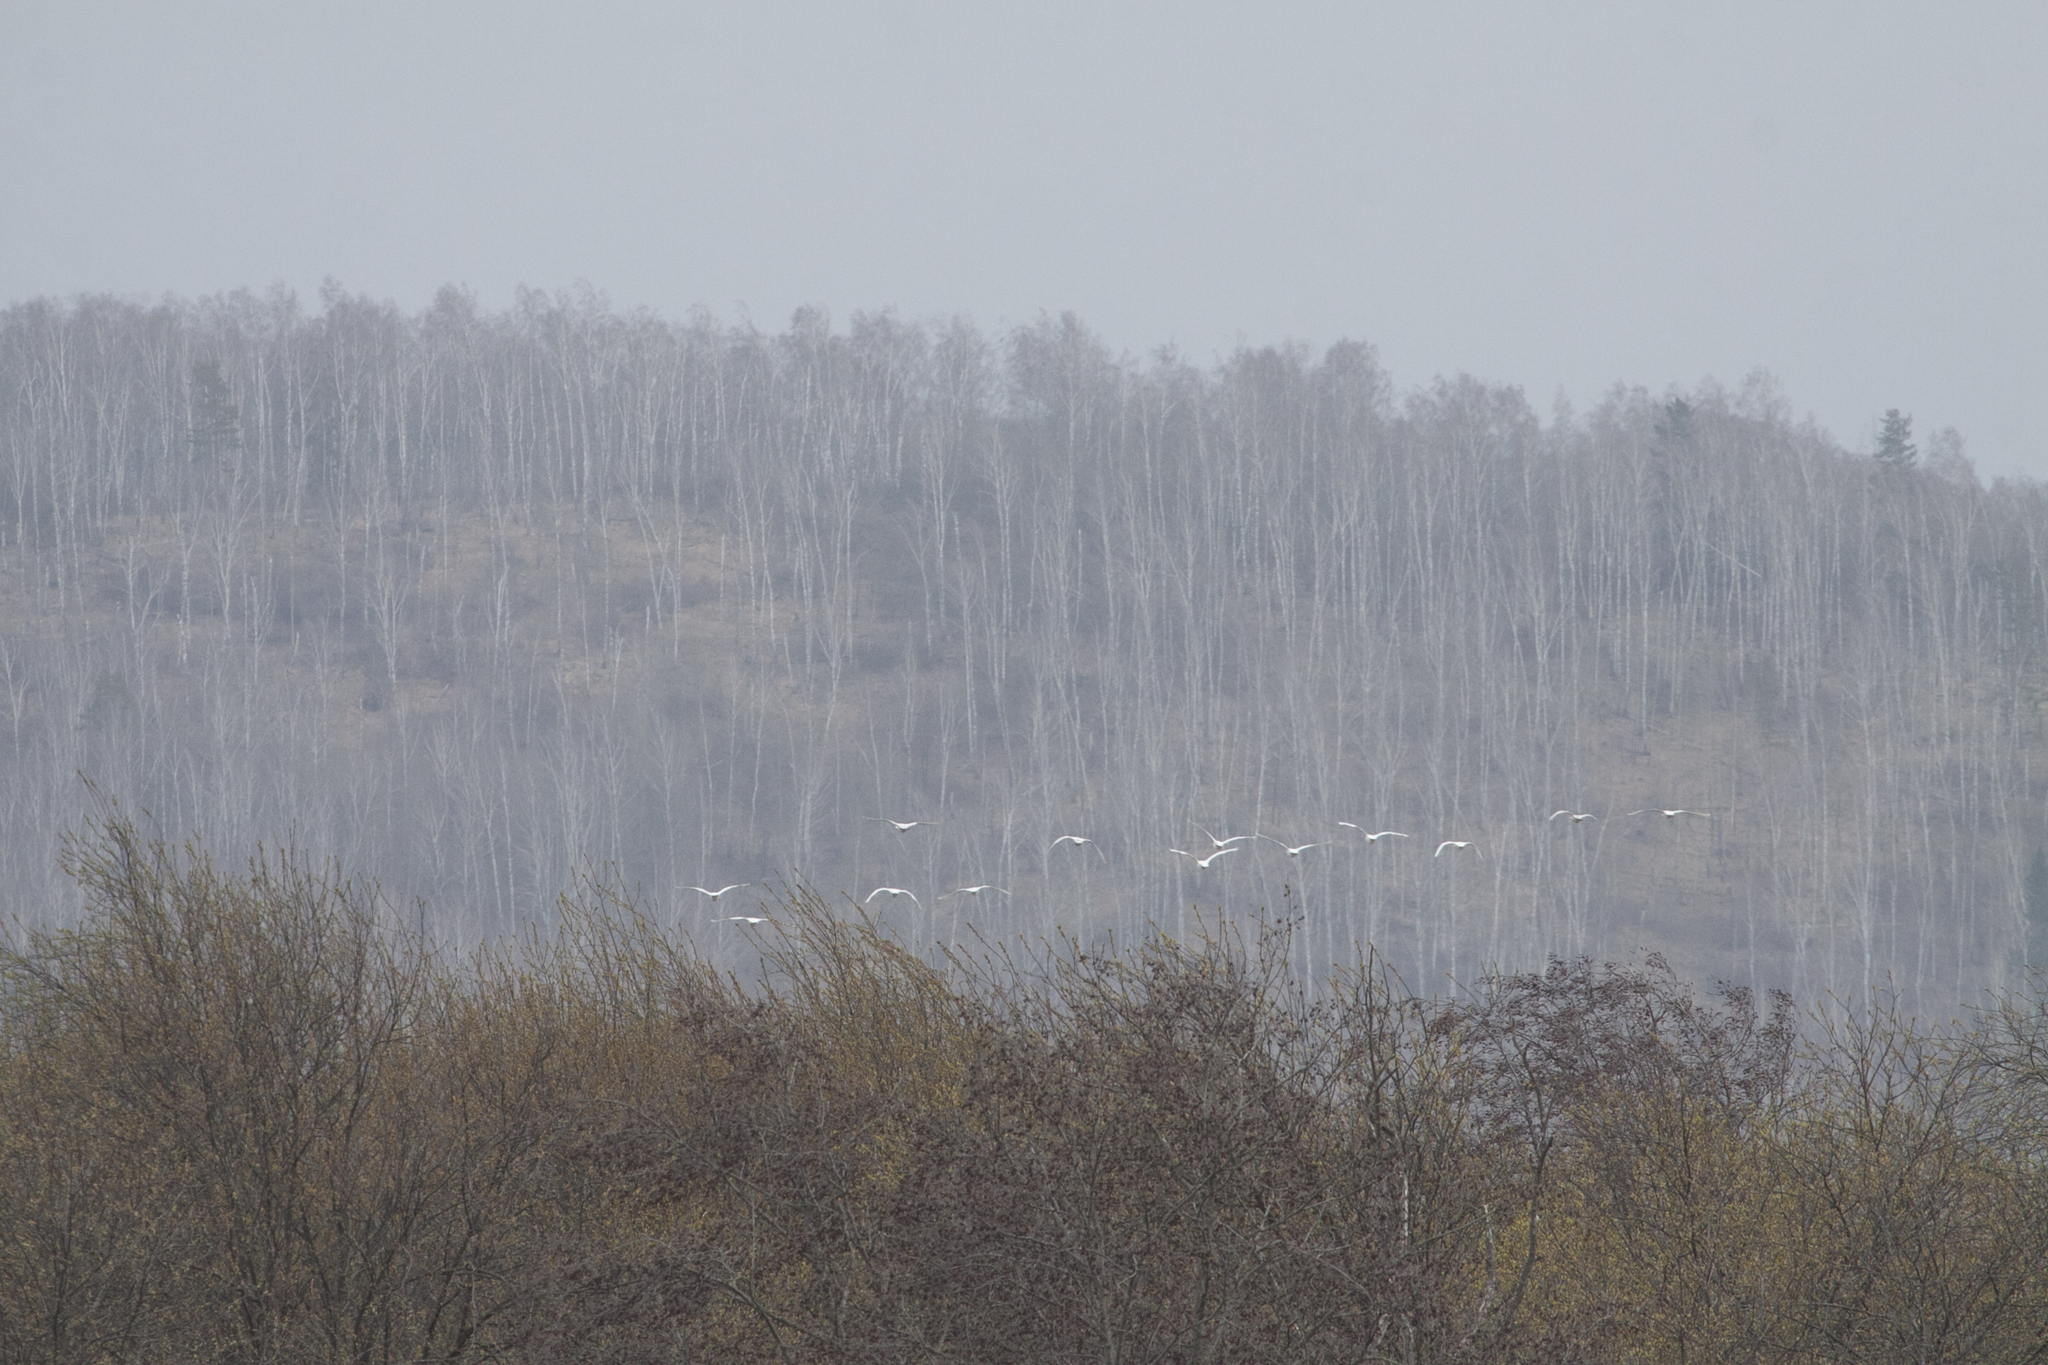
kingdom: Animalia
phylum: Chordata
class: Aves
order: Anseriformes
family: Anatidae
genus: Cygnus
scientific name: Cygnus olor
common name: Mute swan
